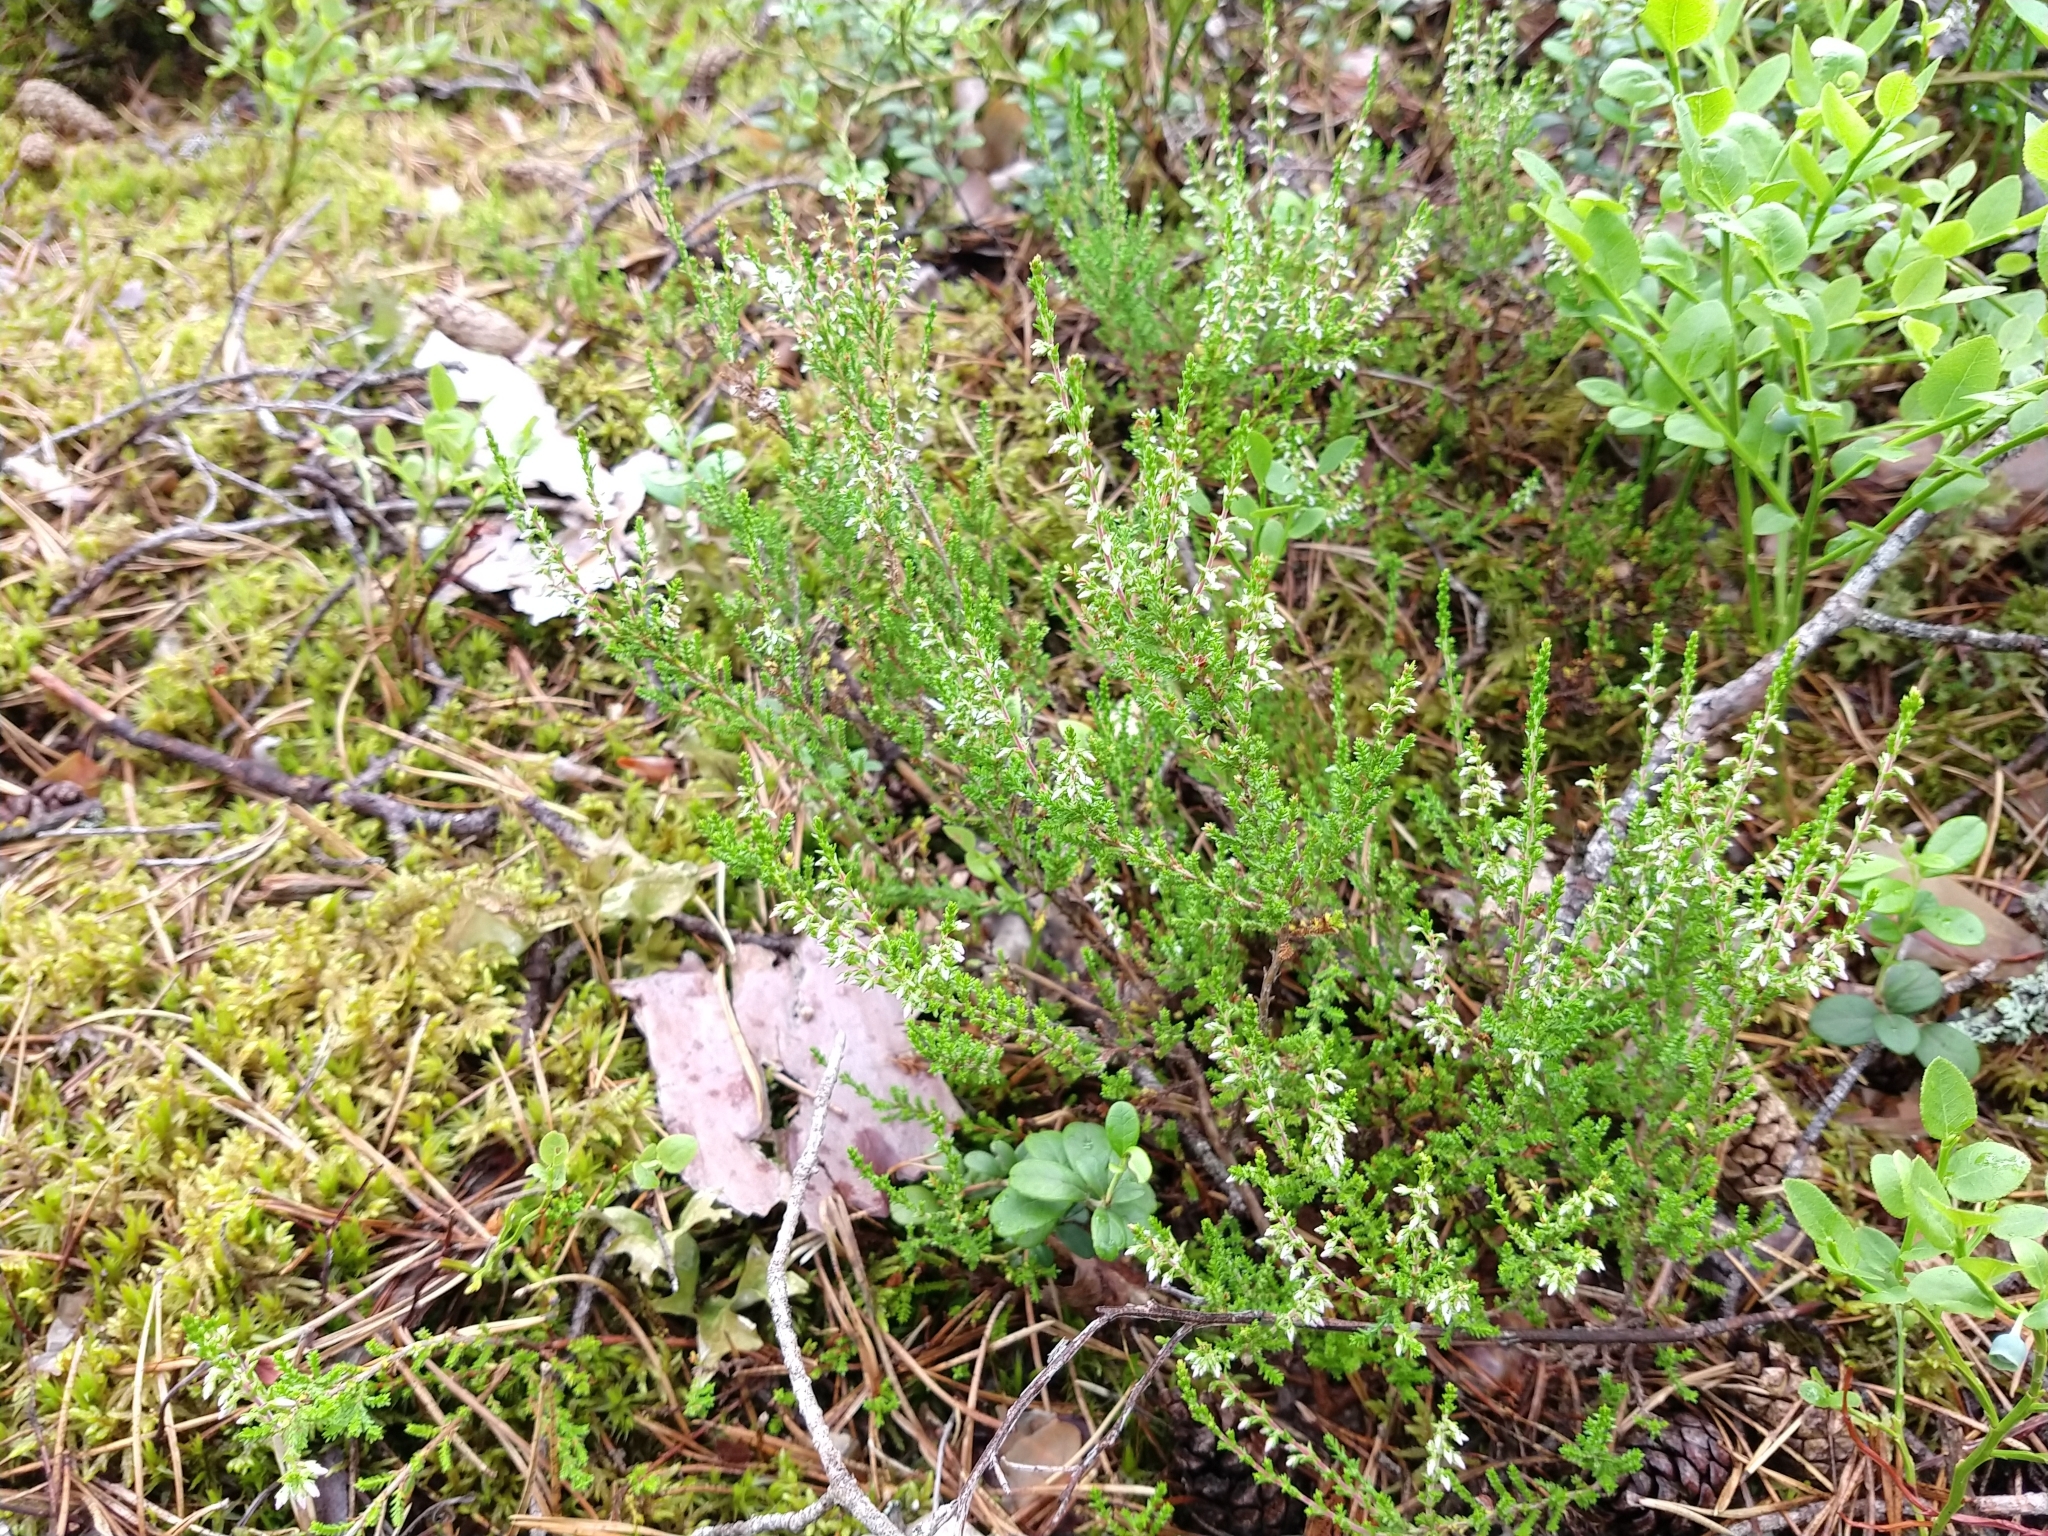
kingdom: Plantae
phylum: Tracheophyta
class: Magnoliopsida
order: Ericales
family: Ericaceae
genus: Calluna
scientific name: Calluna vulgaris
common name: Heather
